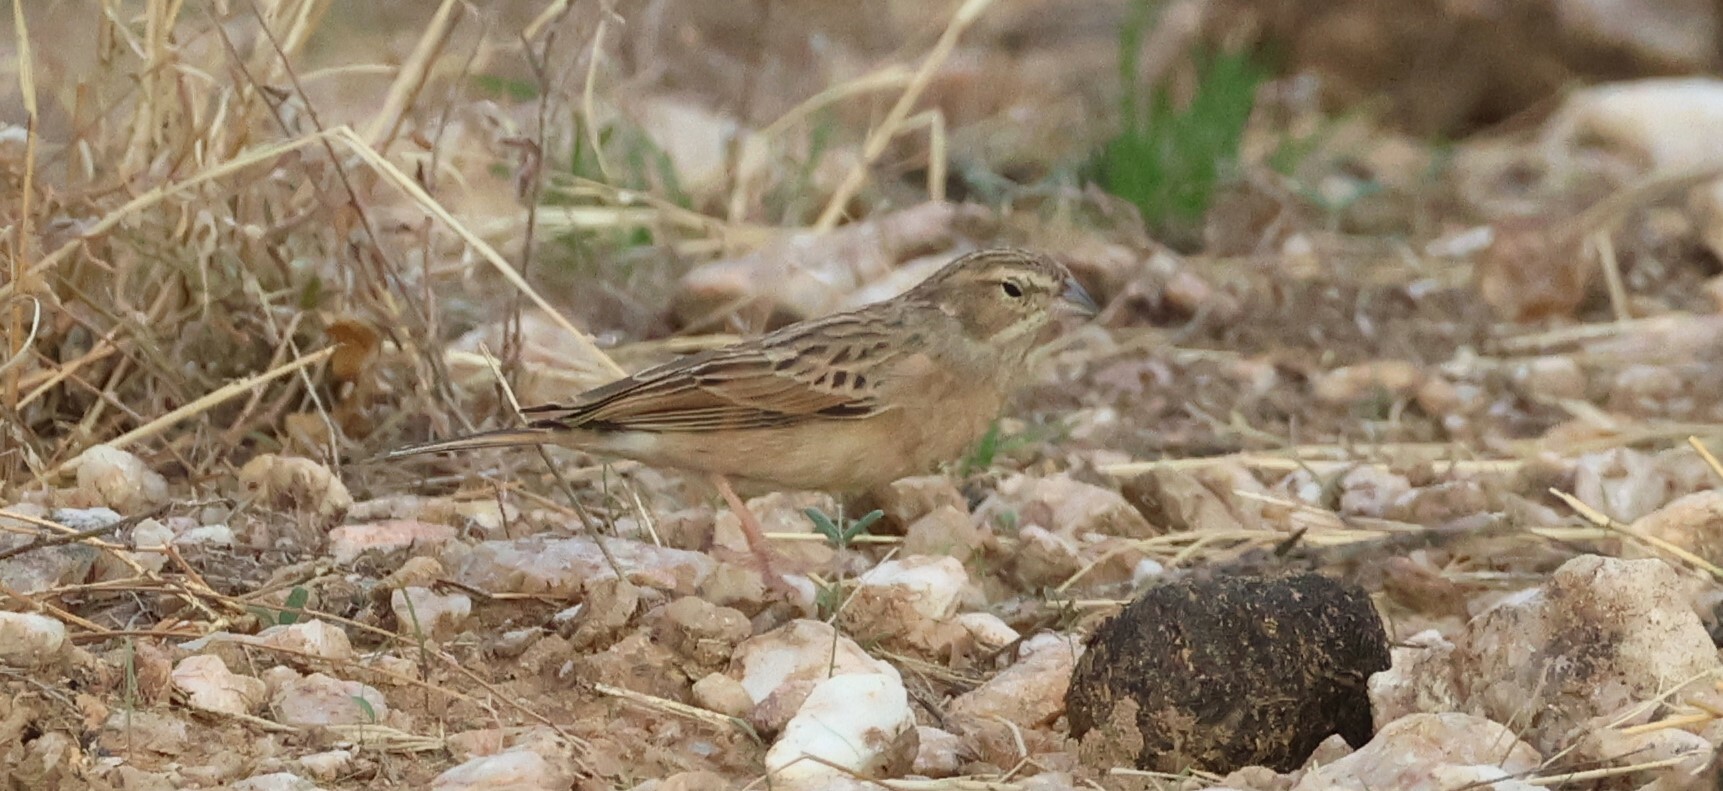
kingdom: Animalia
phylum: Chordata
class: Aves
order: Passeriformes
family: Emberizidae
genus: Emberiza
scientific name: Emberiza impetuani
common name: Lark-like bunting
